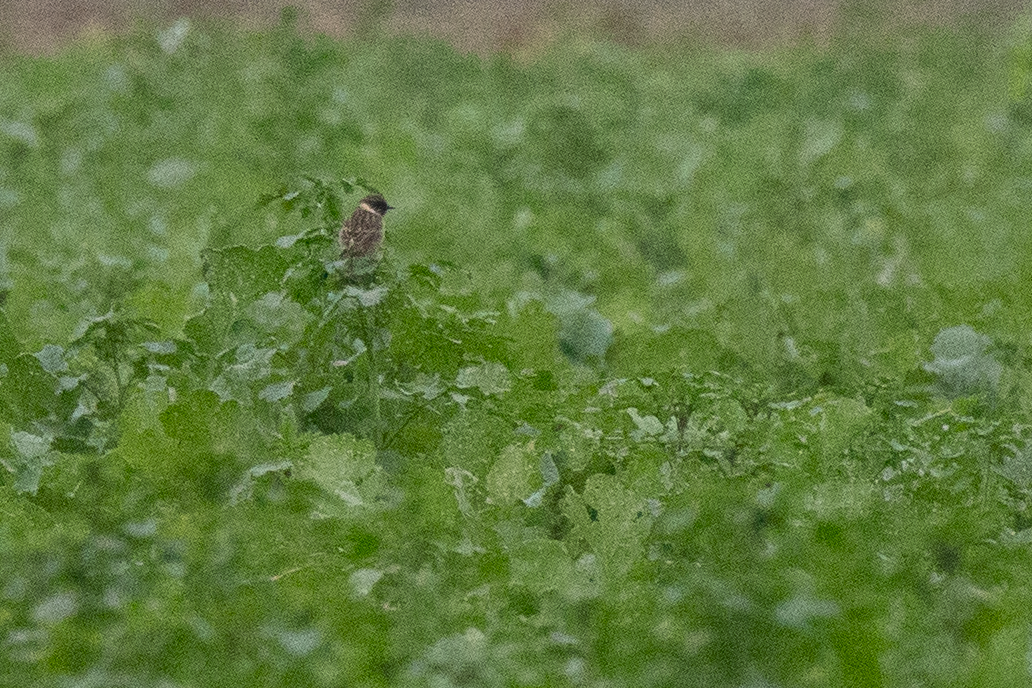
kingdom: Animalia
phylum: Chordata
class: Aves
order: Passeriformes
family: Muscicapidae
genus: Saxicola
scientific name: Saxicola rubicola
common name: European stonechat
